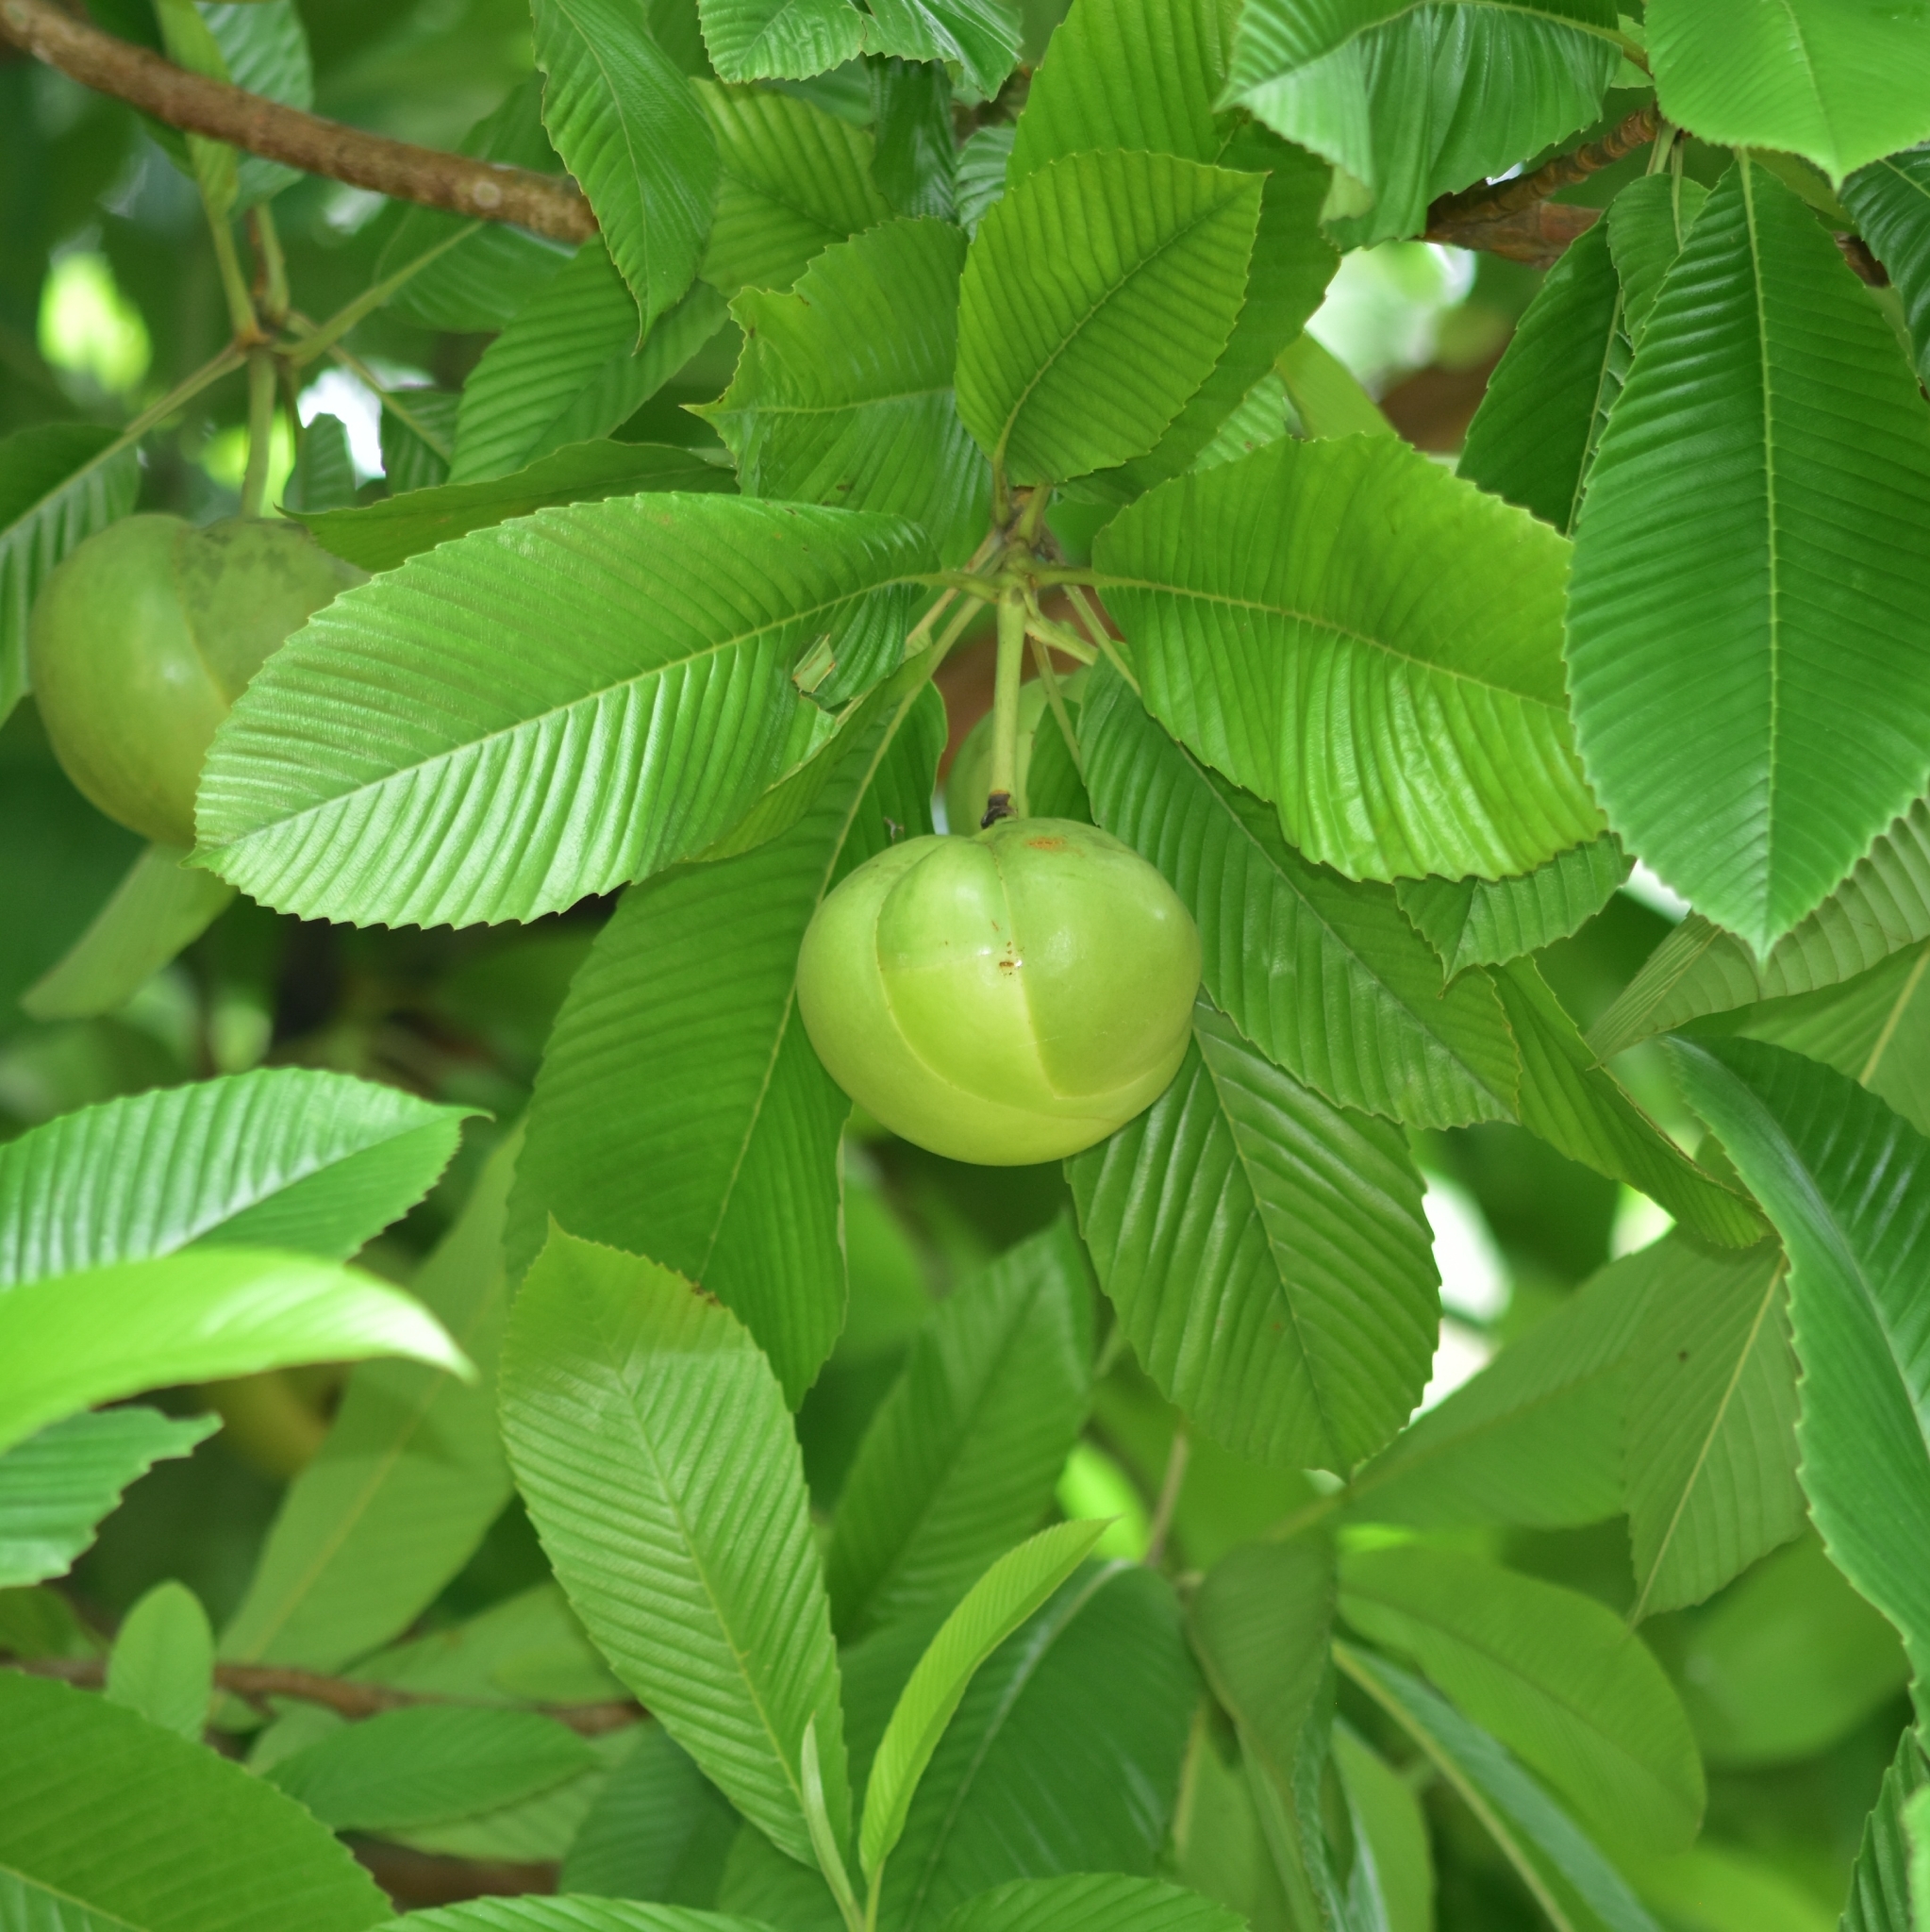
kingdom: Plantae
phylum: Tracheophyta
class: Magnoliopsida
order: Dilleniales
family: Dilleniaceae
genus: Dillenia
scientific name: Dillenia indica
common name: Elephant apple
